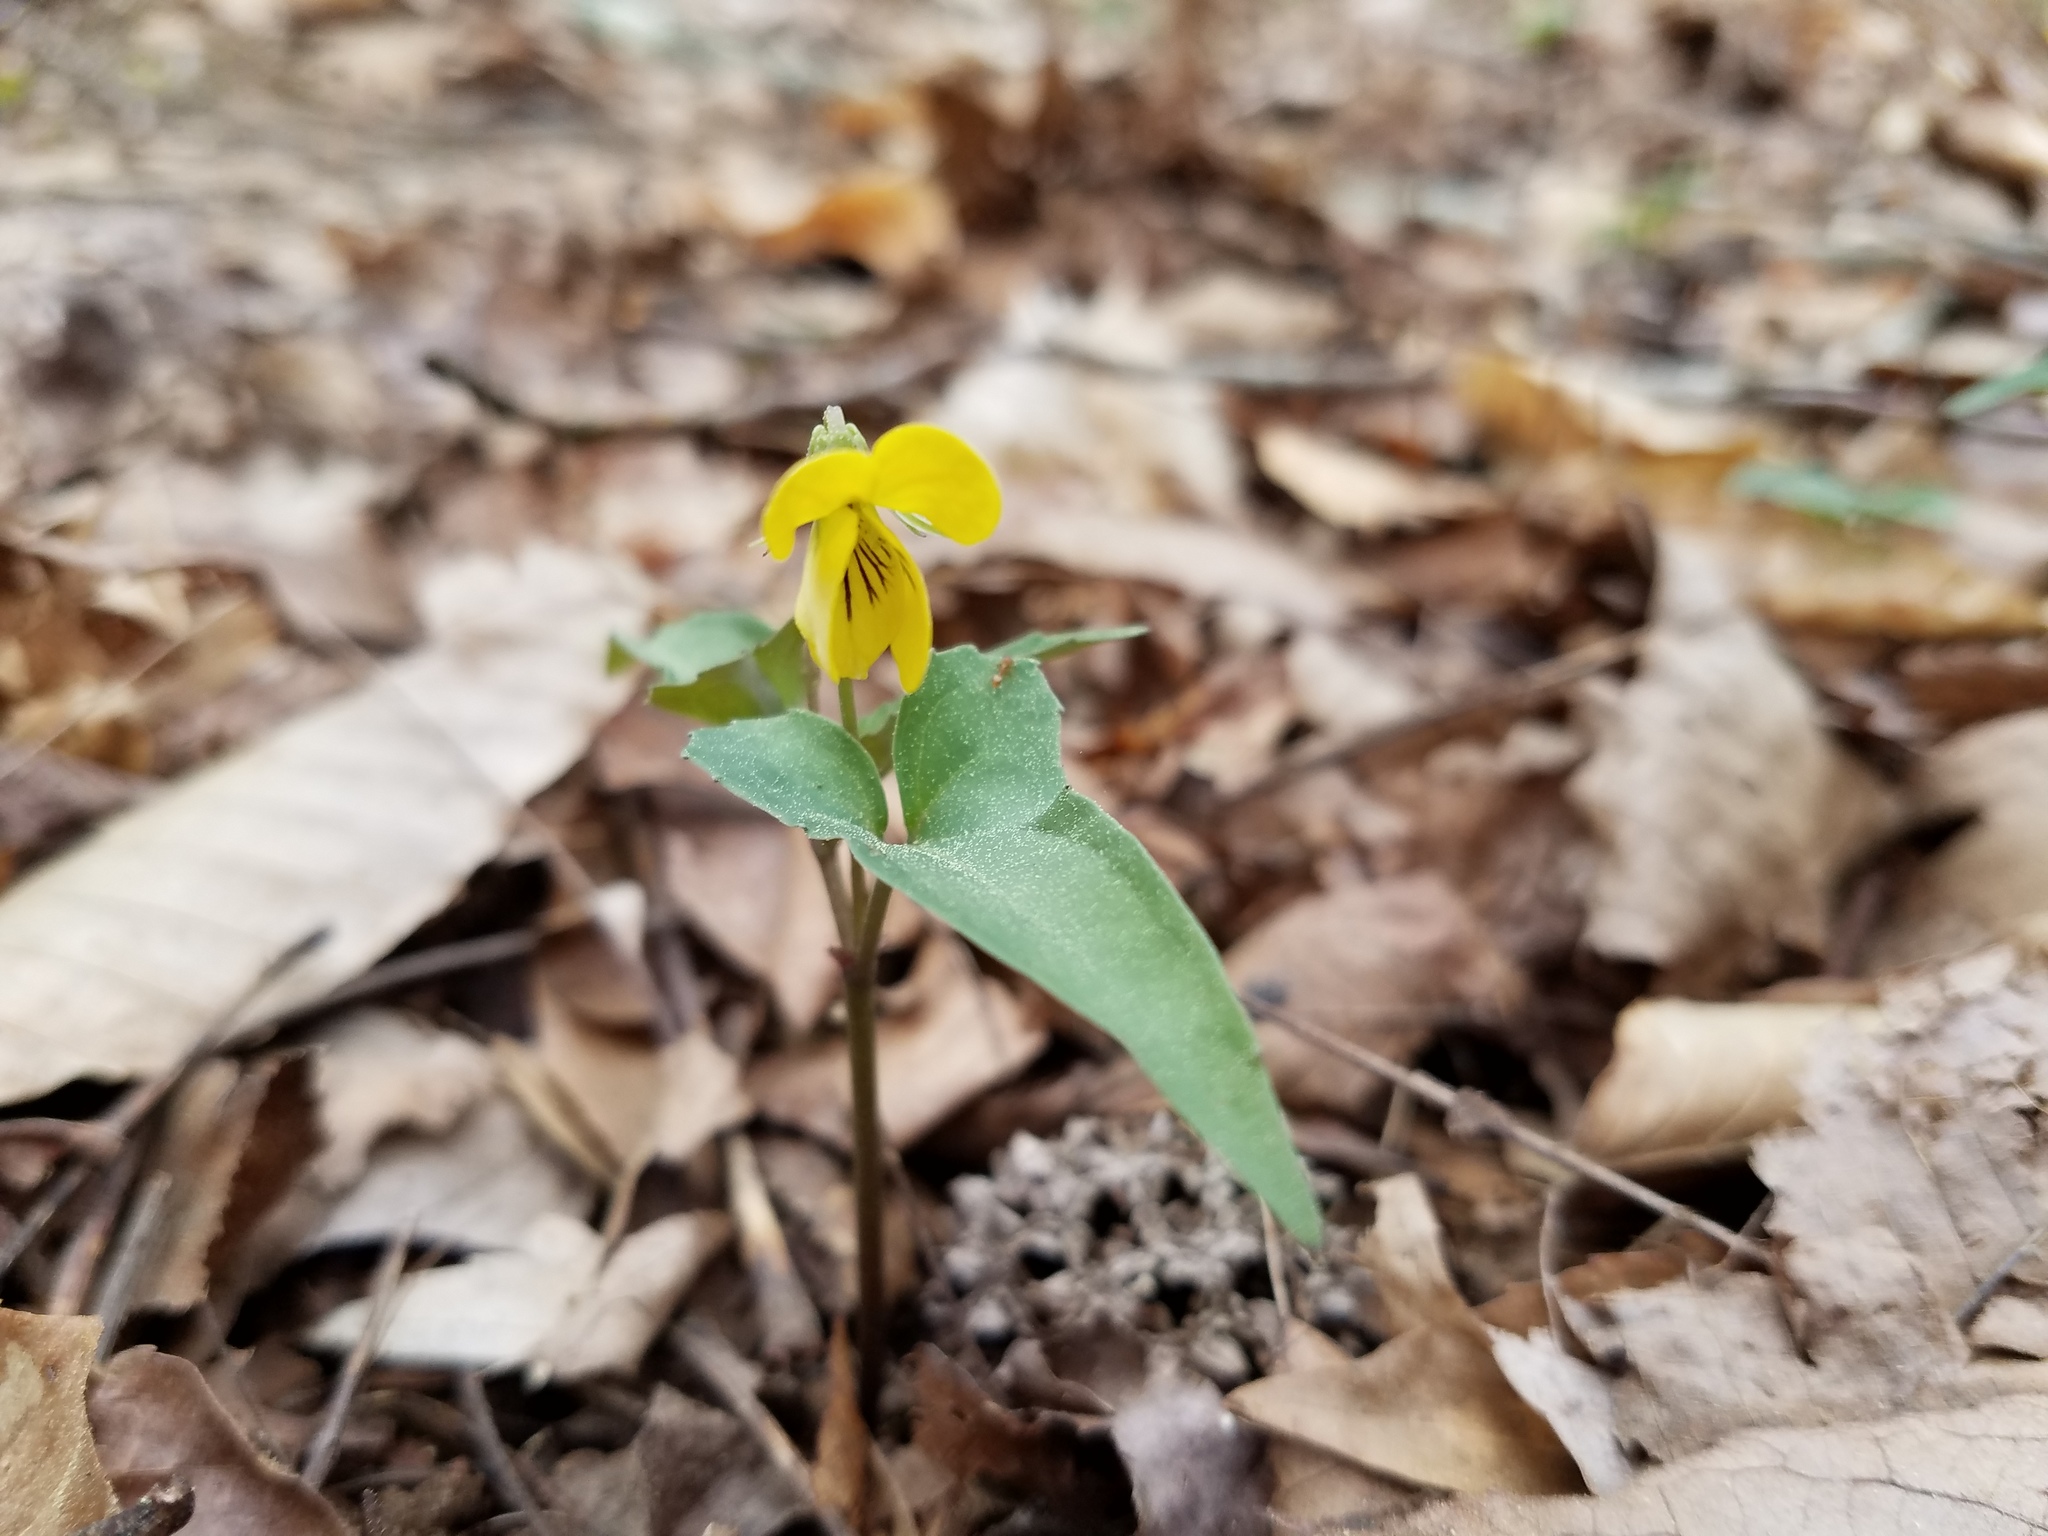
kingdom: Plantae
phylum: Tracheophyta
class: Magnoliopsida
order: Malpighiales
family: Violaceae
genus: Viola
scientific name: Viola hastata
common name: Spear-leaf violet
